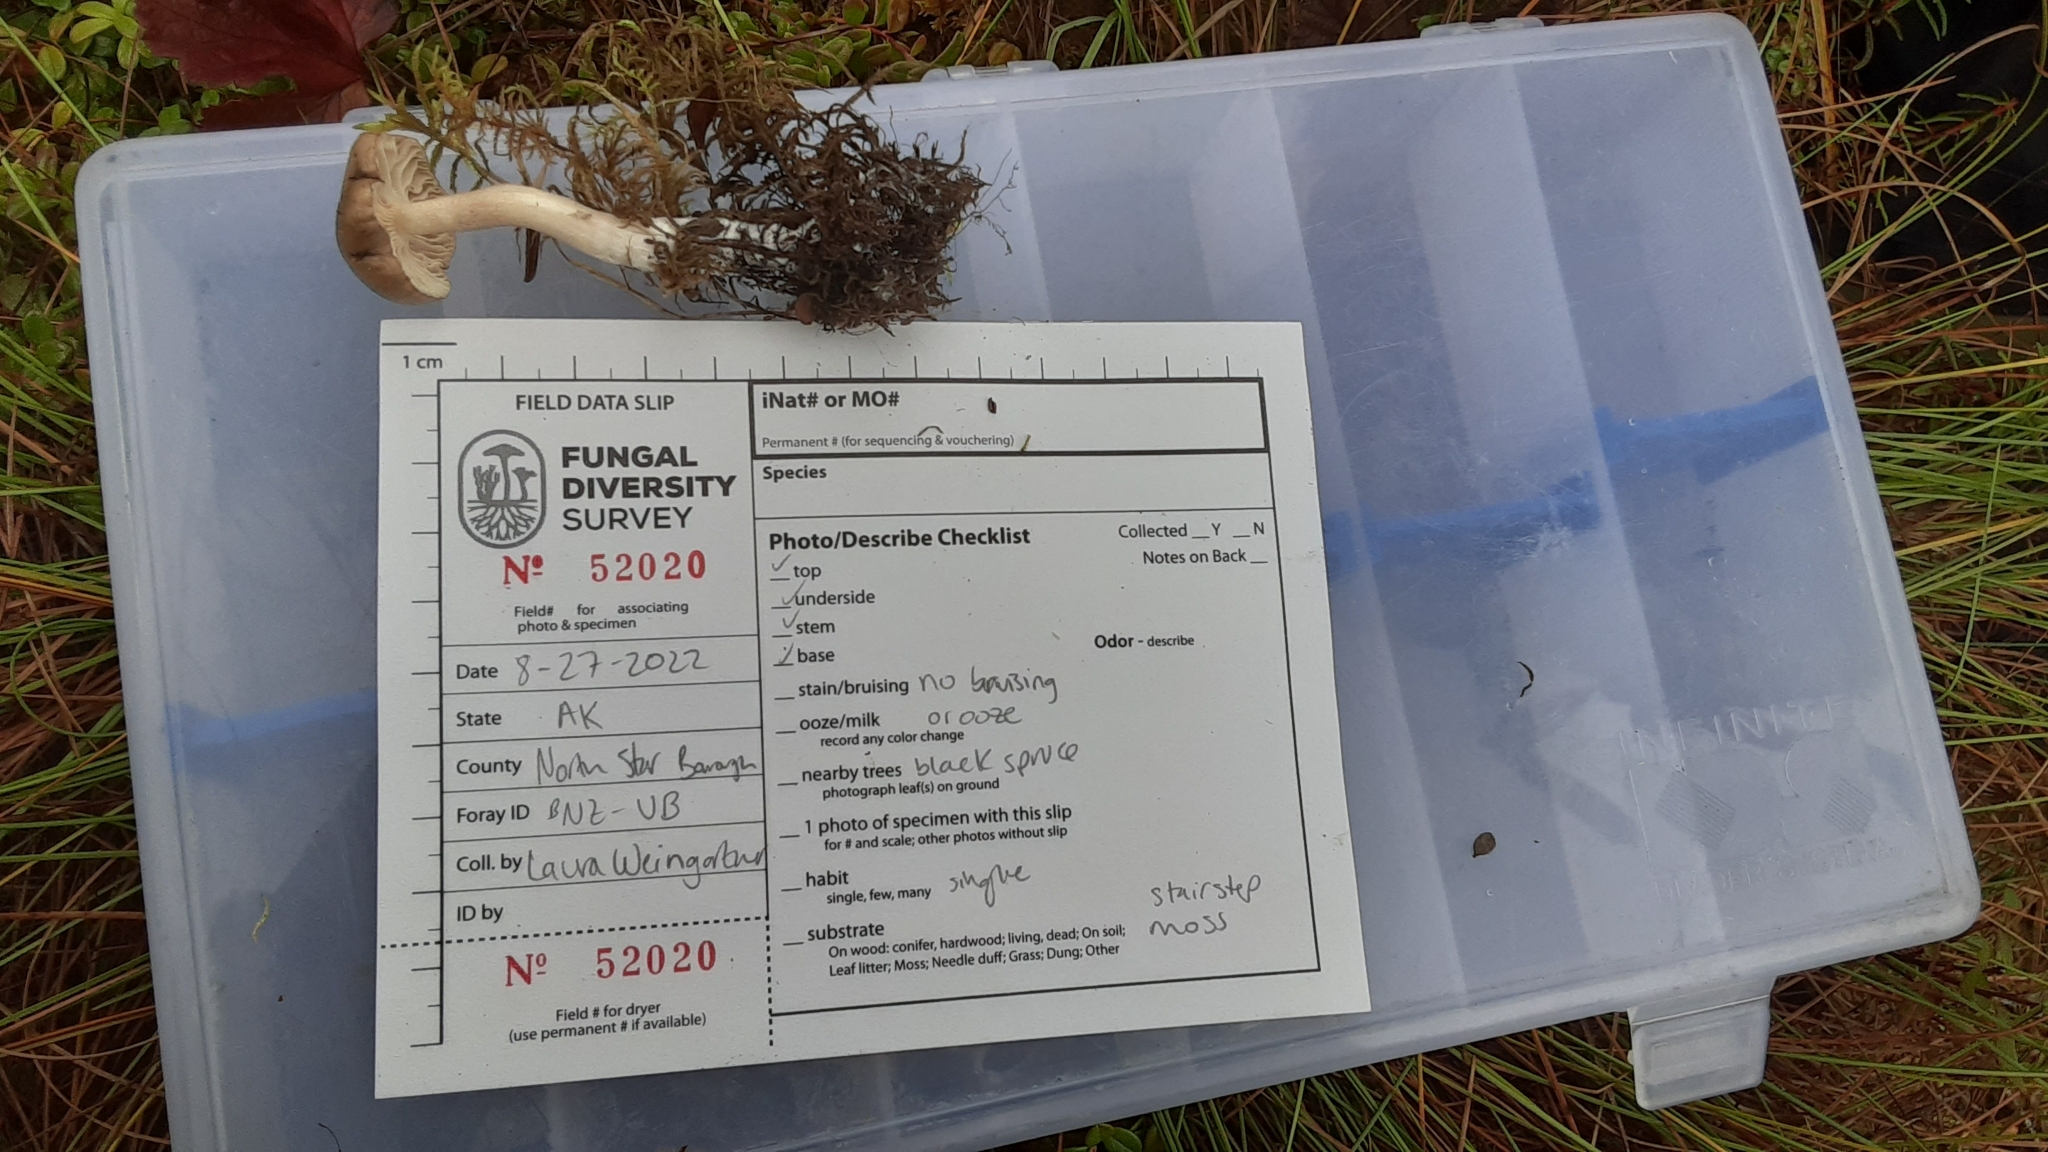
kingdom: Fungi
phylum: Basidiomycota
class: Agaricomycetes
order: Agaricales
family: Hygrophoraceae
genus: Hygrophorus
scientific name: Hygrophorus pustulatoides
